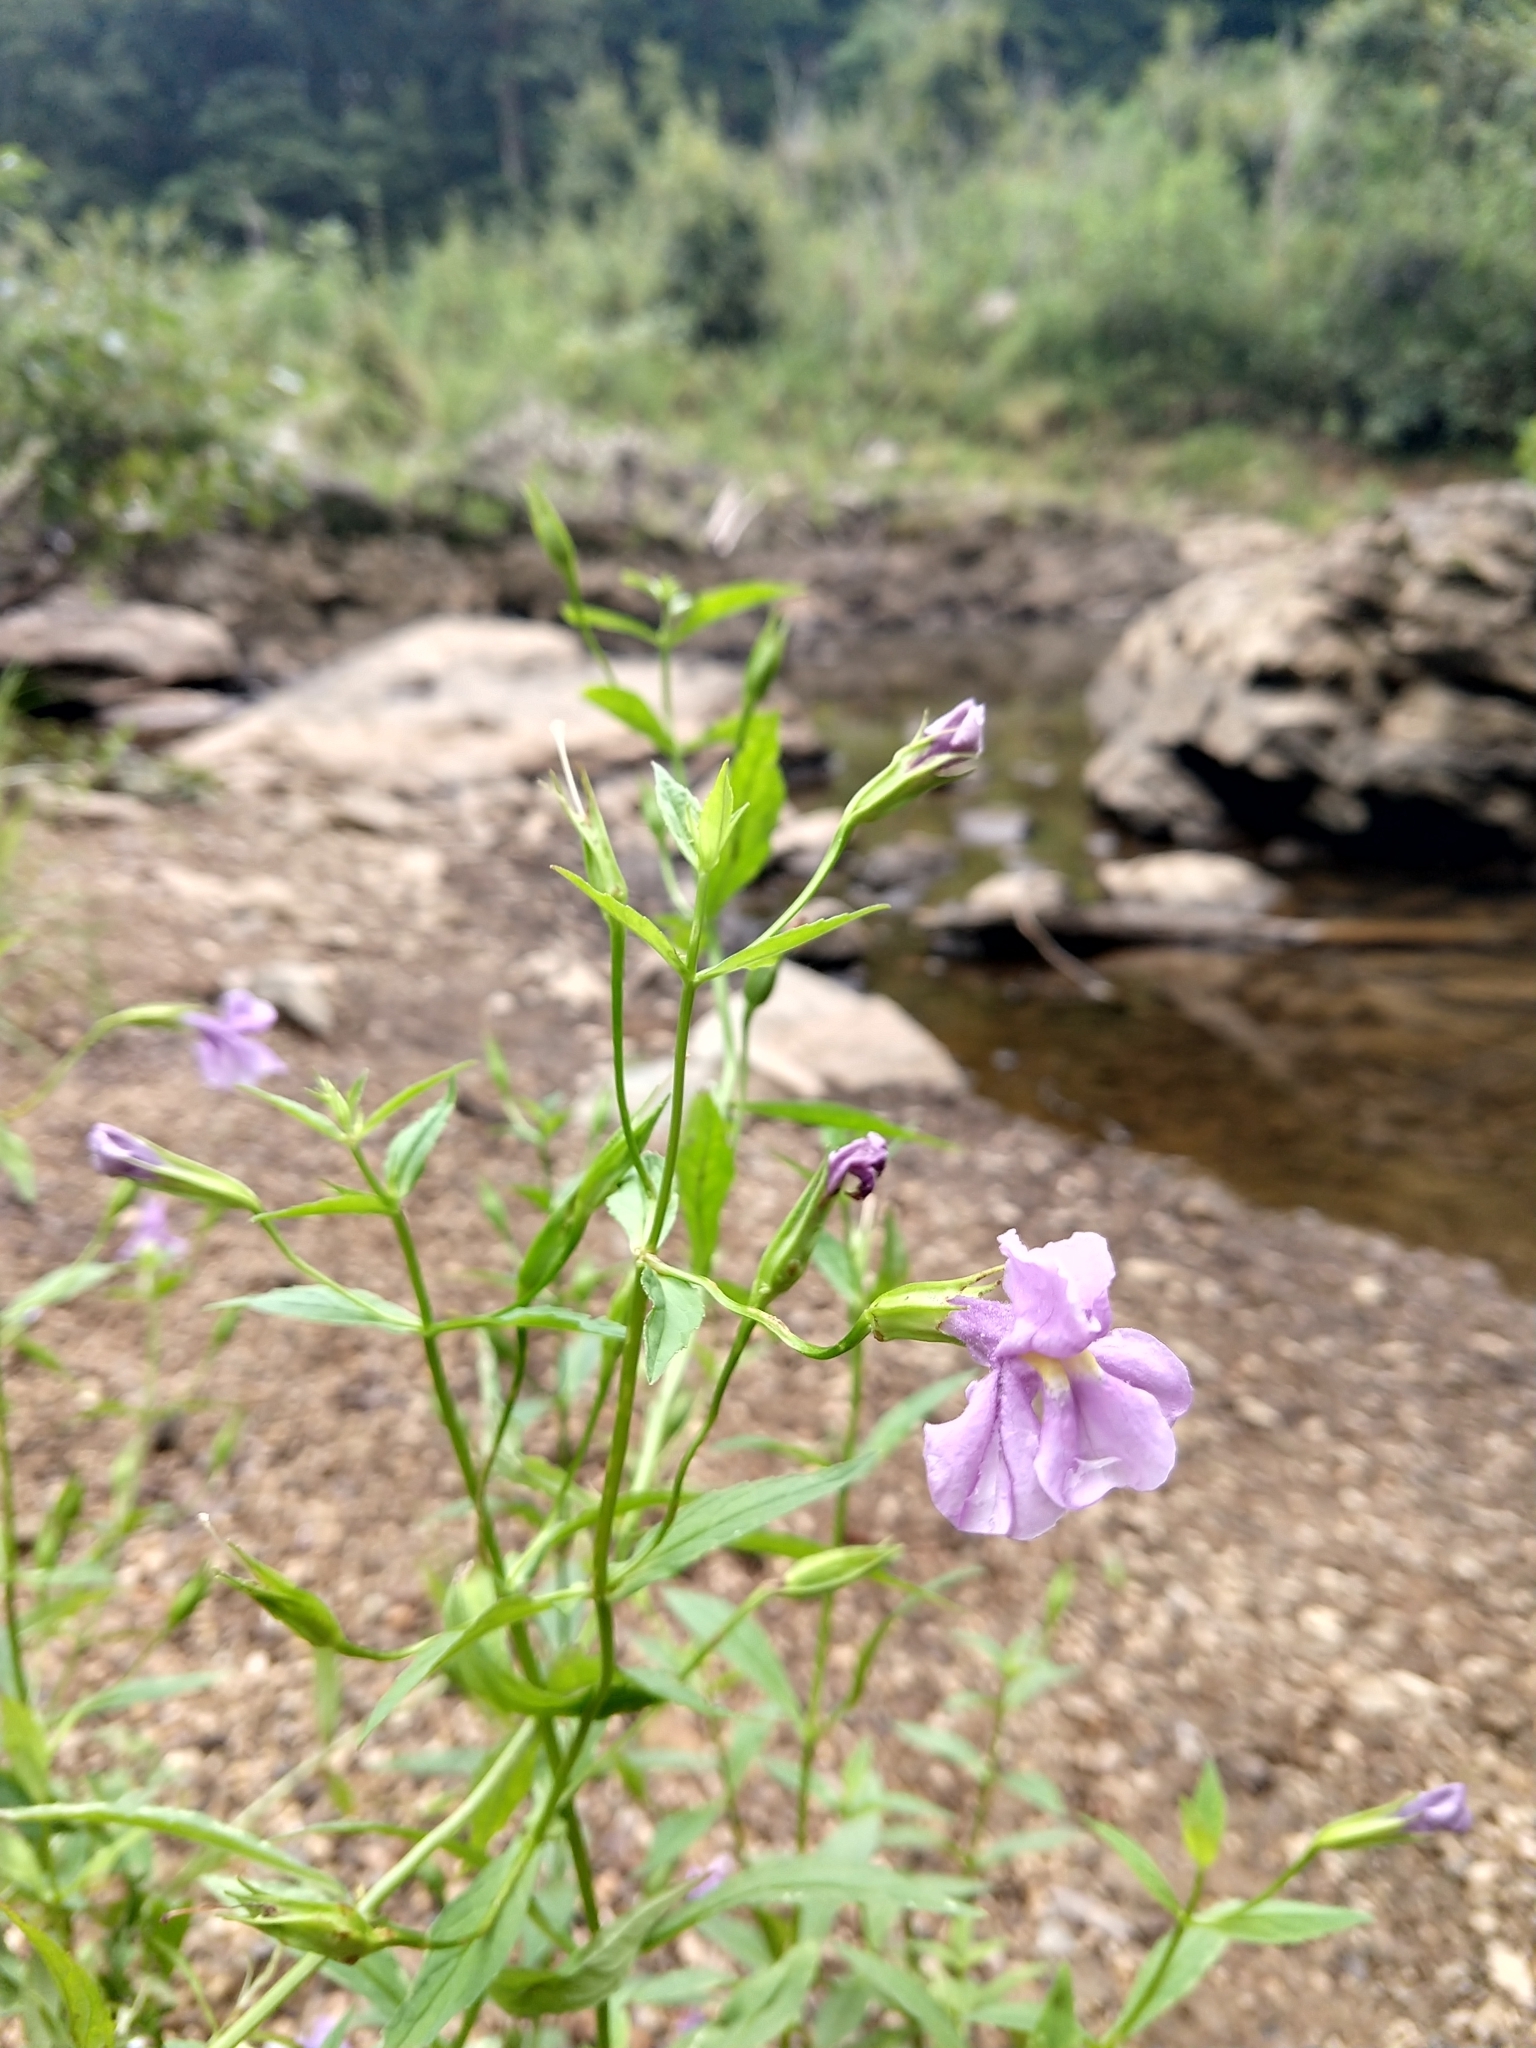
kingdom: Plantae
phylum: Tracheophyta
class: Magnoliopsida
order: Lamiales
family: Phrymaceae
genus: Mimulus
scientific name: Mimulus ringens
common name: Allegheny monkeyflower
